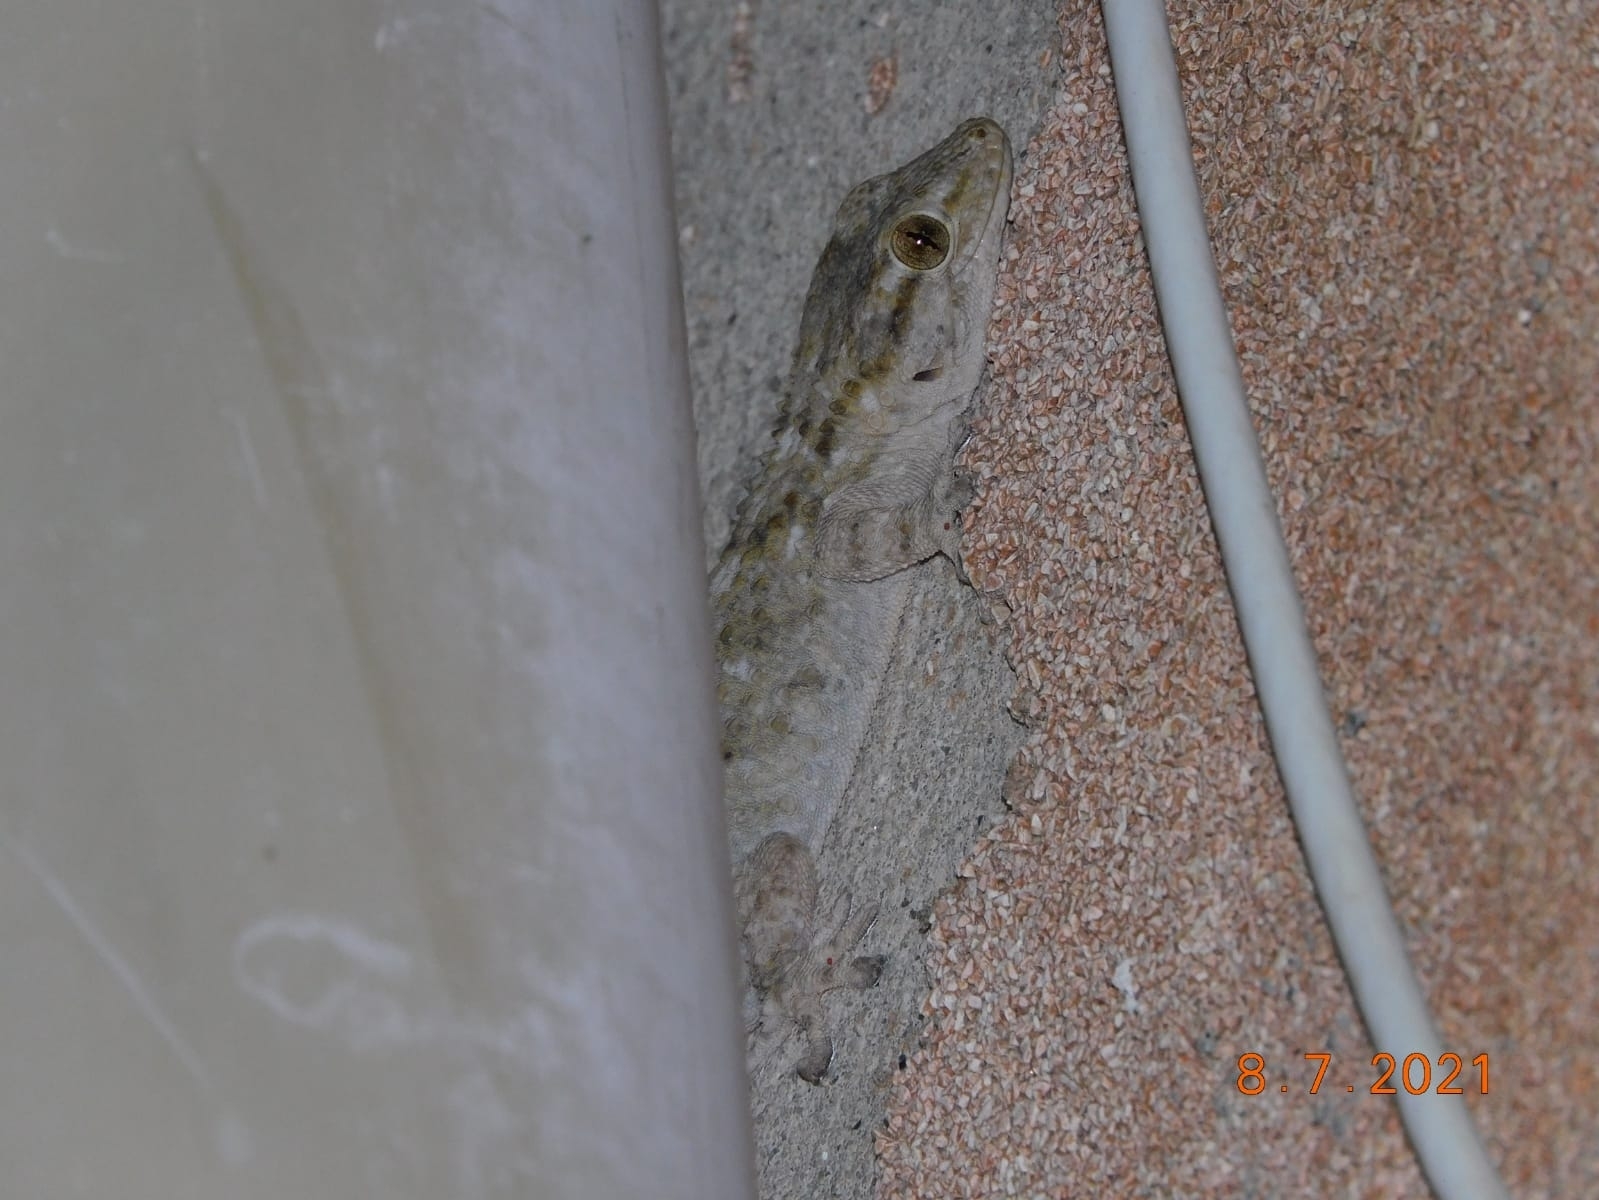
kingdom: Animalia
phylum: Chordata
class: Squamata
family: Phyllodactylidae
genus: Tarentola
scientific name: Tarentola mauritanica
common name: Moorish gecko
